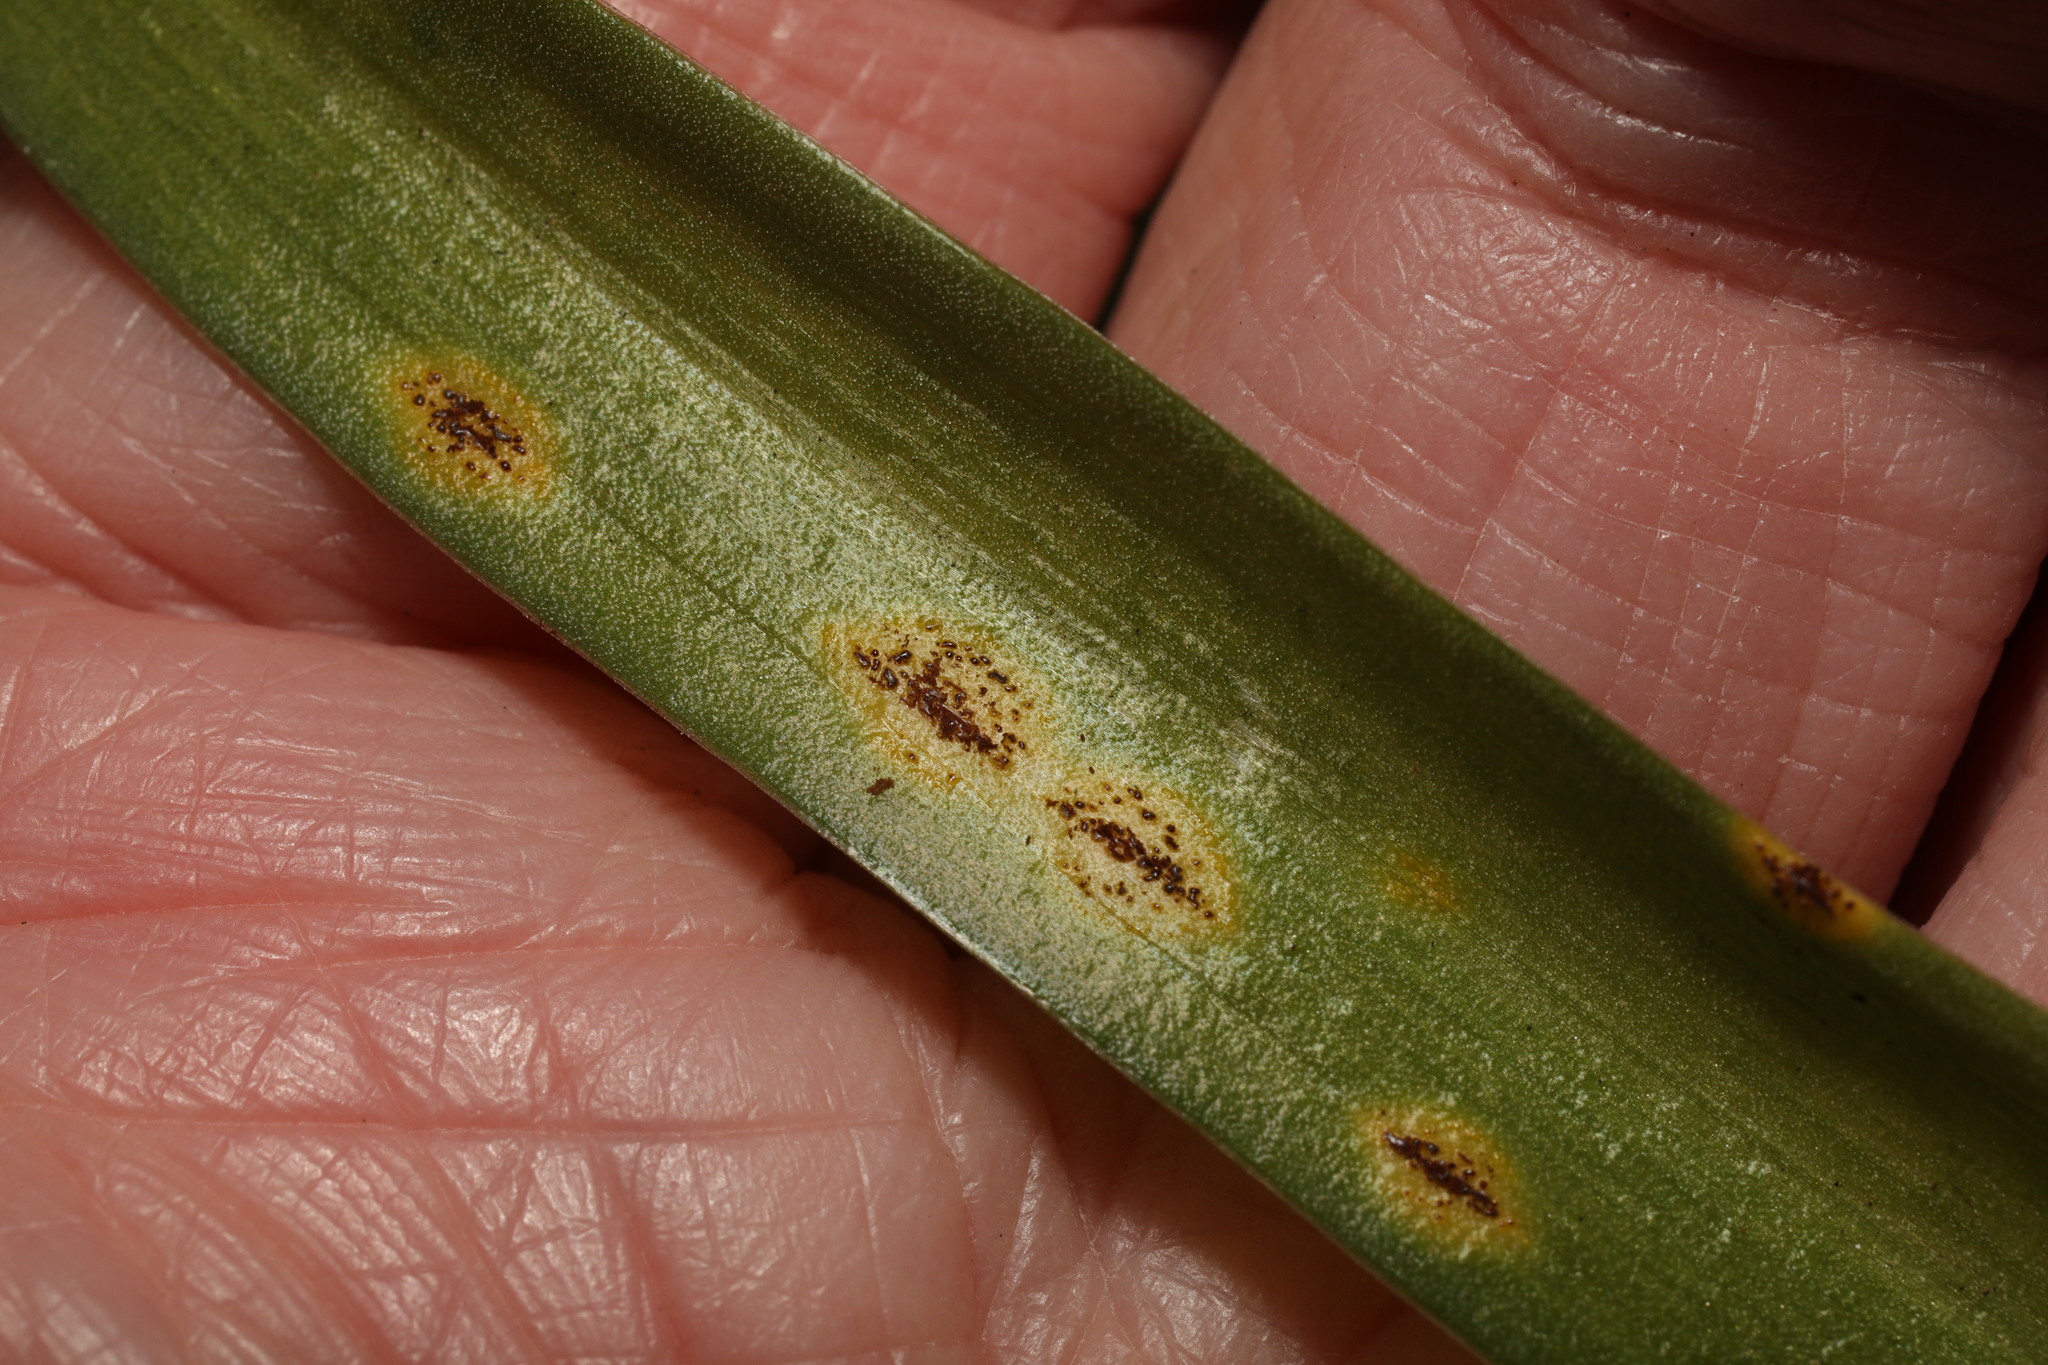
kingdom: Fungi
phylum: Basidiomycota
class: Pucciniomycetes
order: Pucciniales
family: Pucciniaceae
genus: Uromyces
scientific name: Uromyces hyacinthi
